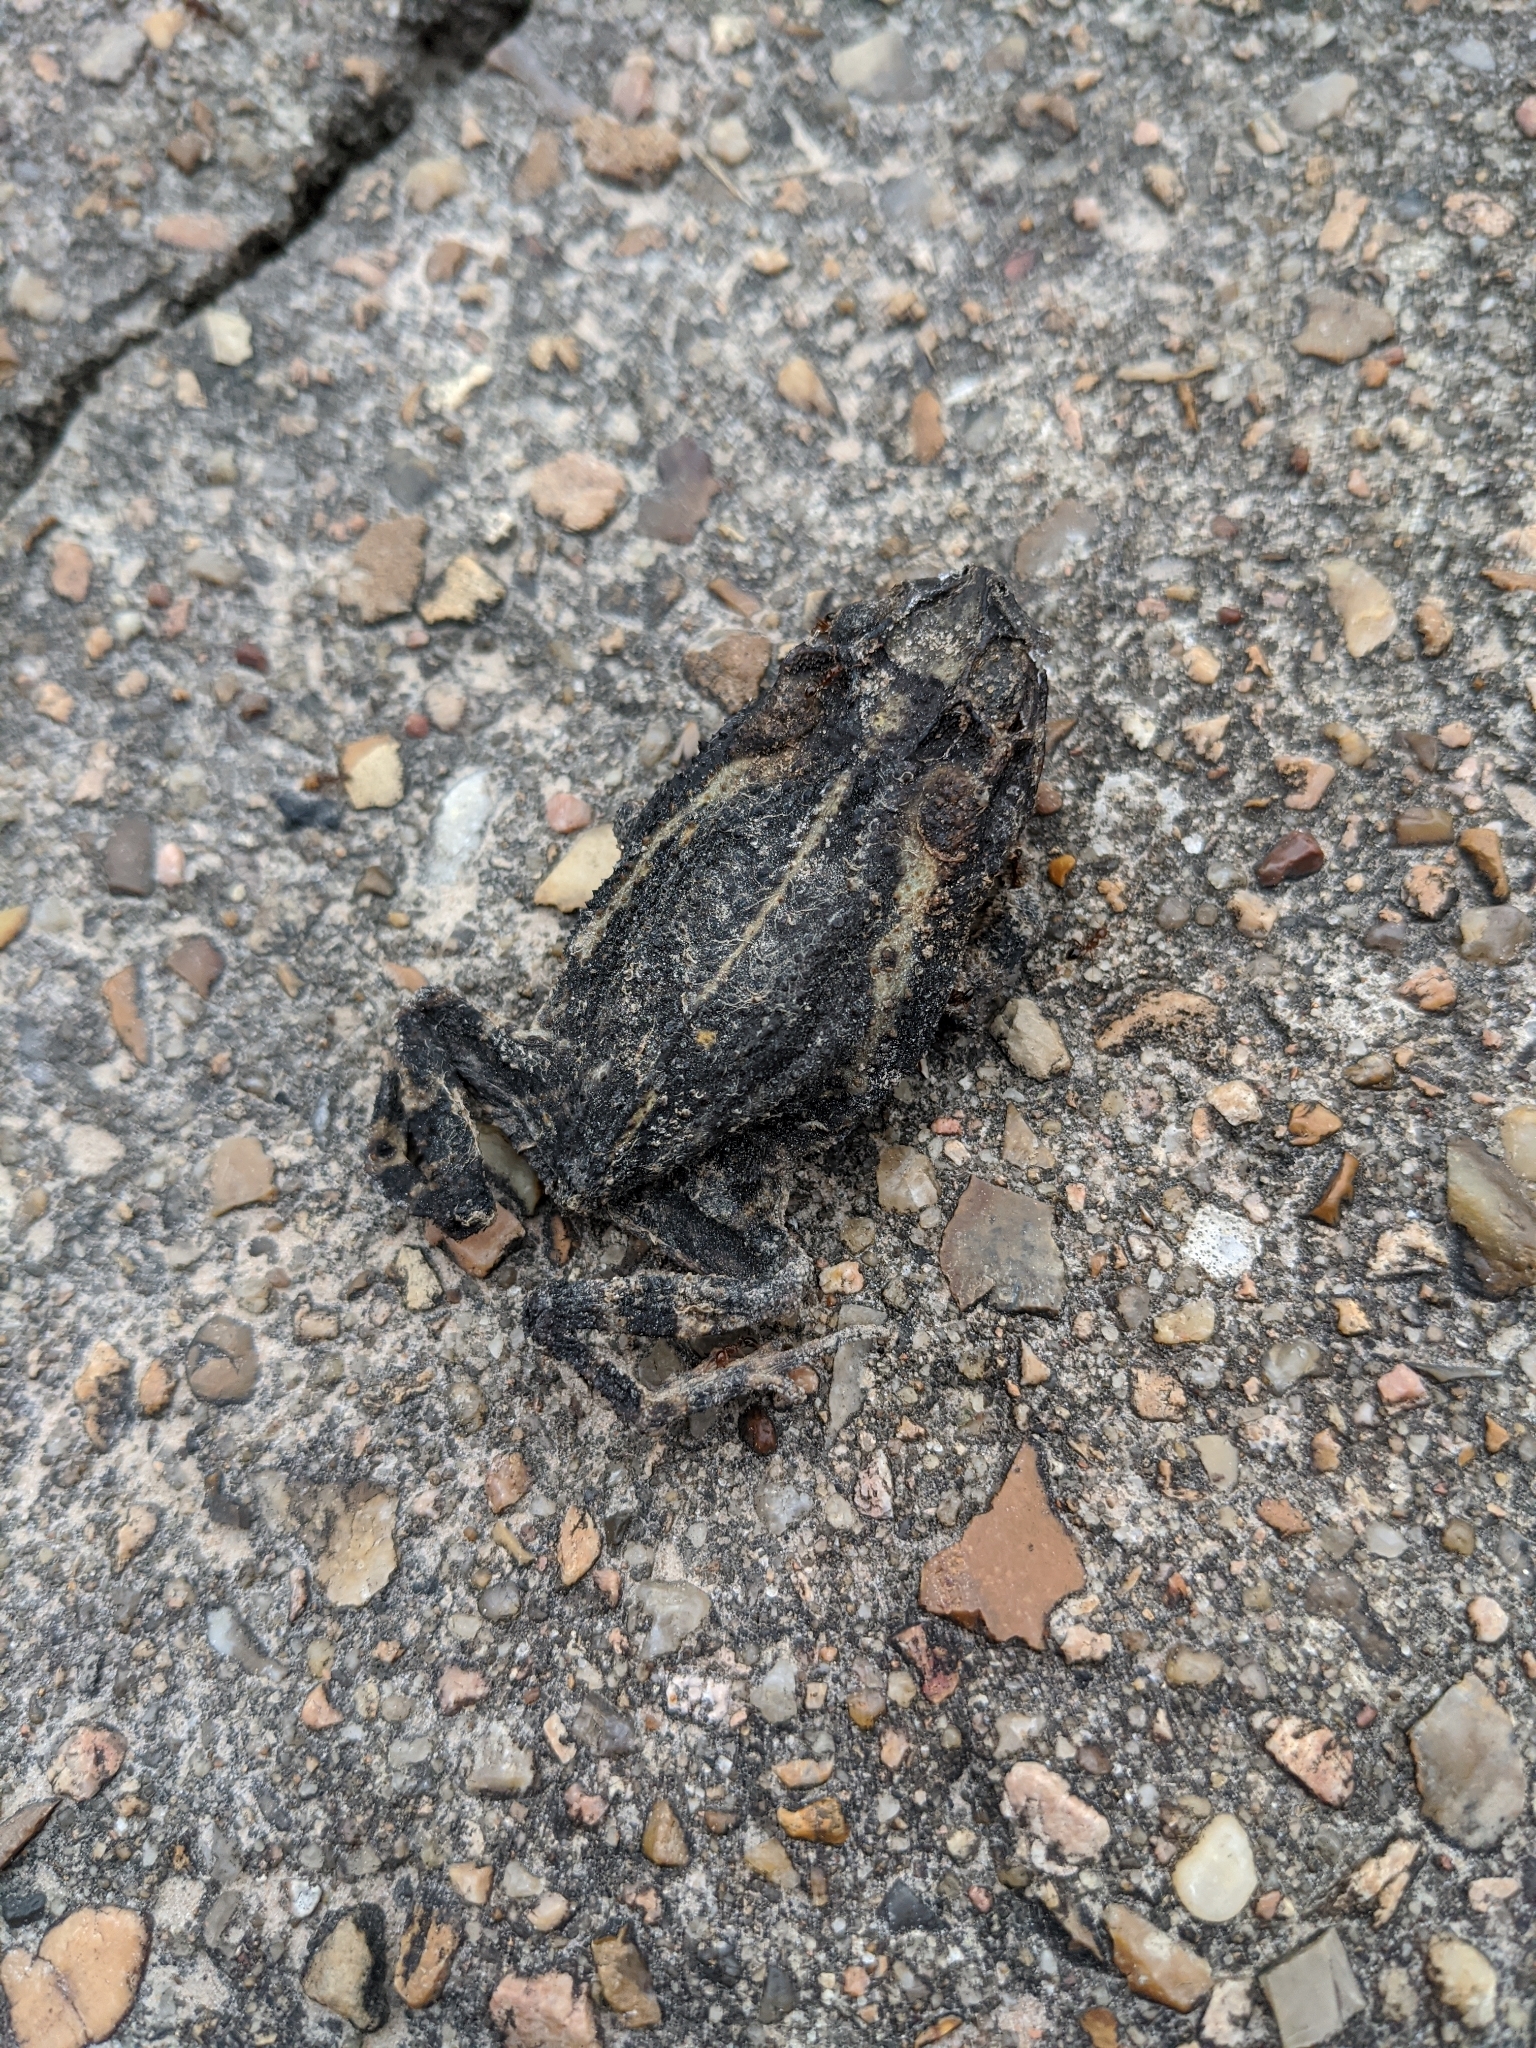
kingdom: Animalia
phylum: Chordata
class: Amphibia
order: Anura
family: Bufonidae
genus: Incilius
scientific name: Incilius nebulifer
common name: Gulf coast toad
